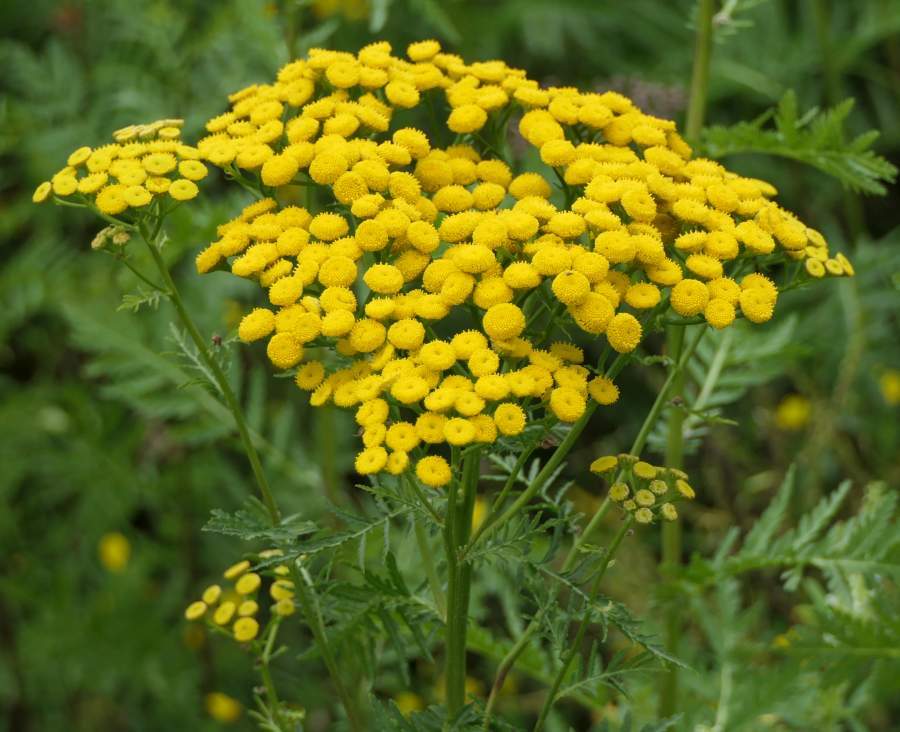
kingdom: Plantae
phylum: Tracheophyta
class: Magnoliopsida
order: Asterales
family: Asteraceae
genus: Tanacetum
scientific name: Tanacetum vulgare
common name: Common tansy
